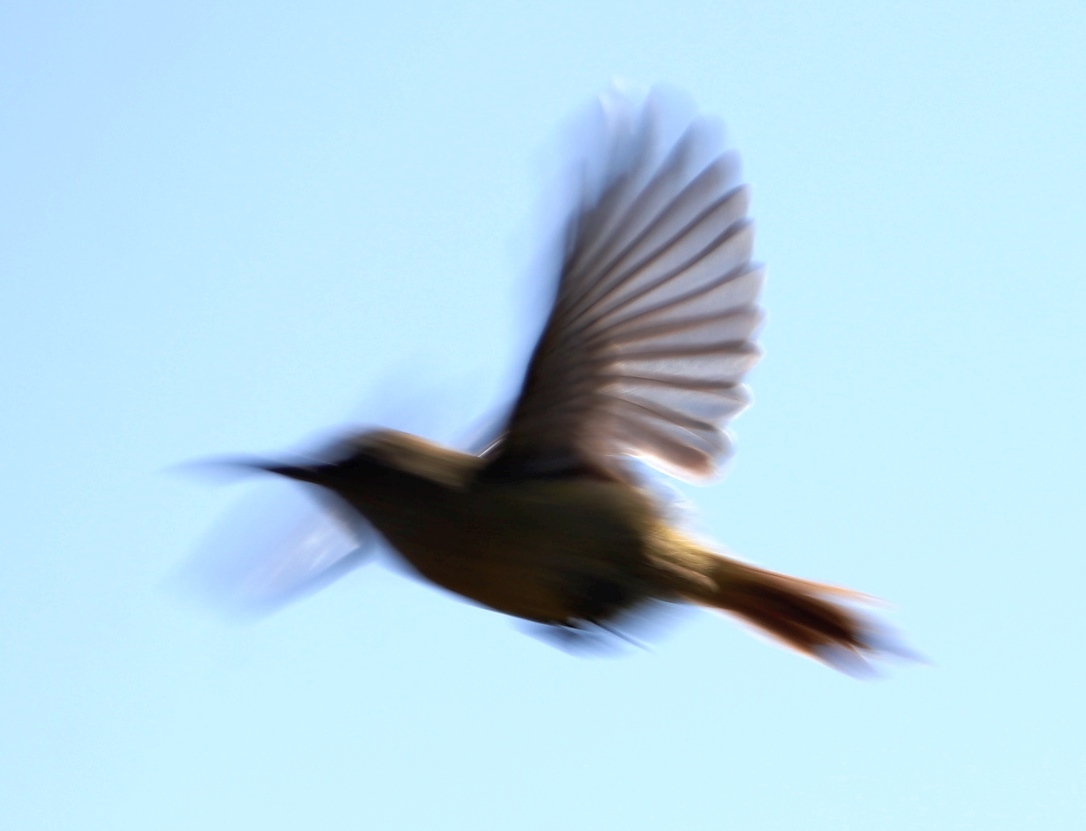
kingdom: Animalia
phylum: Chordata
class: Aves
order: Passeriformes
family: Promeropidae
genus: Promerops
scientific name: Promerops cafer
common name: Cape sugarbird
